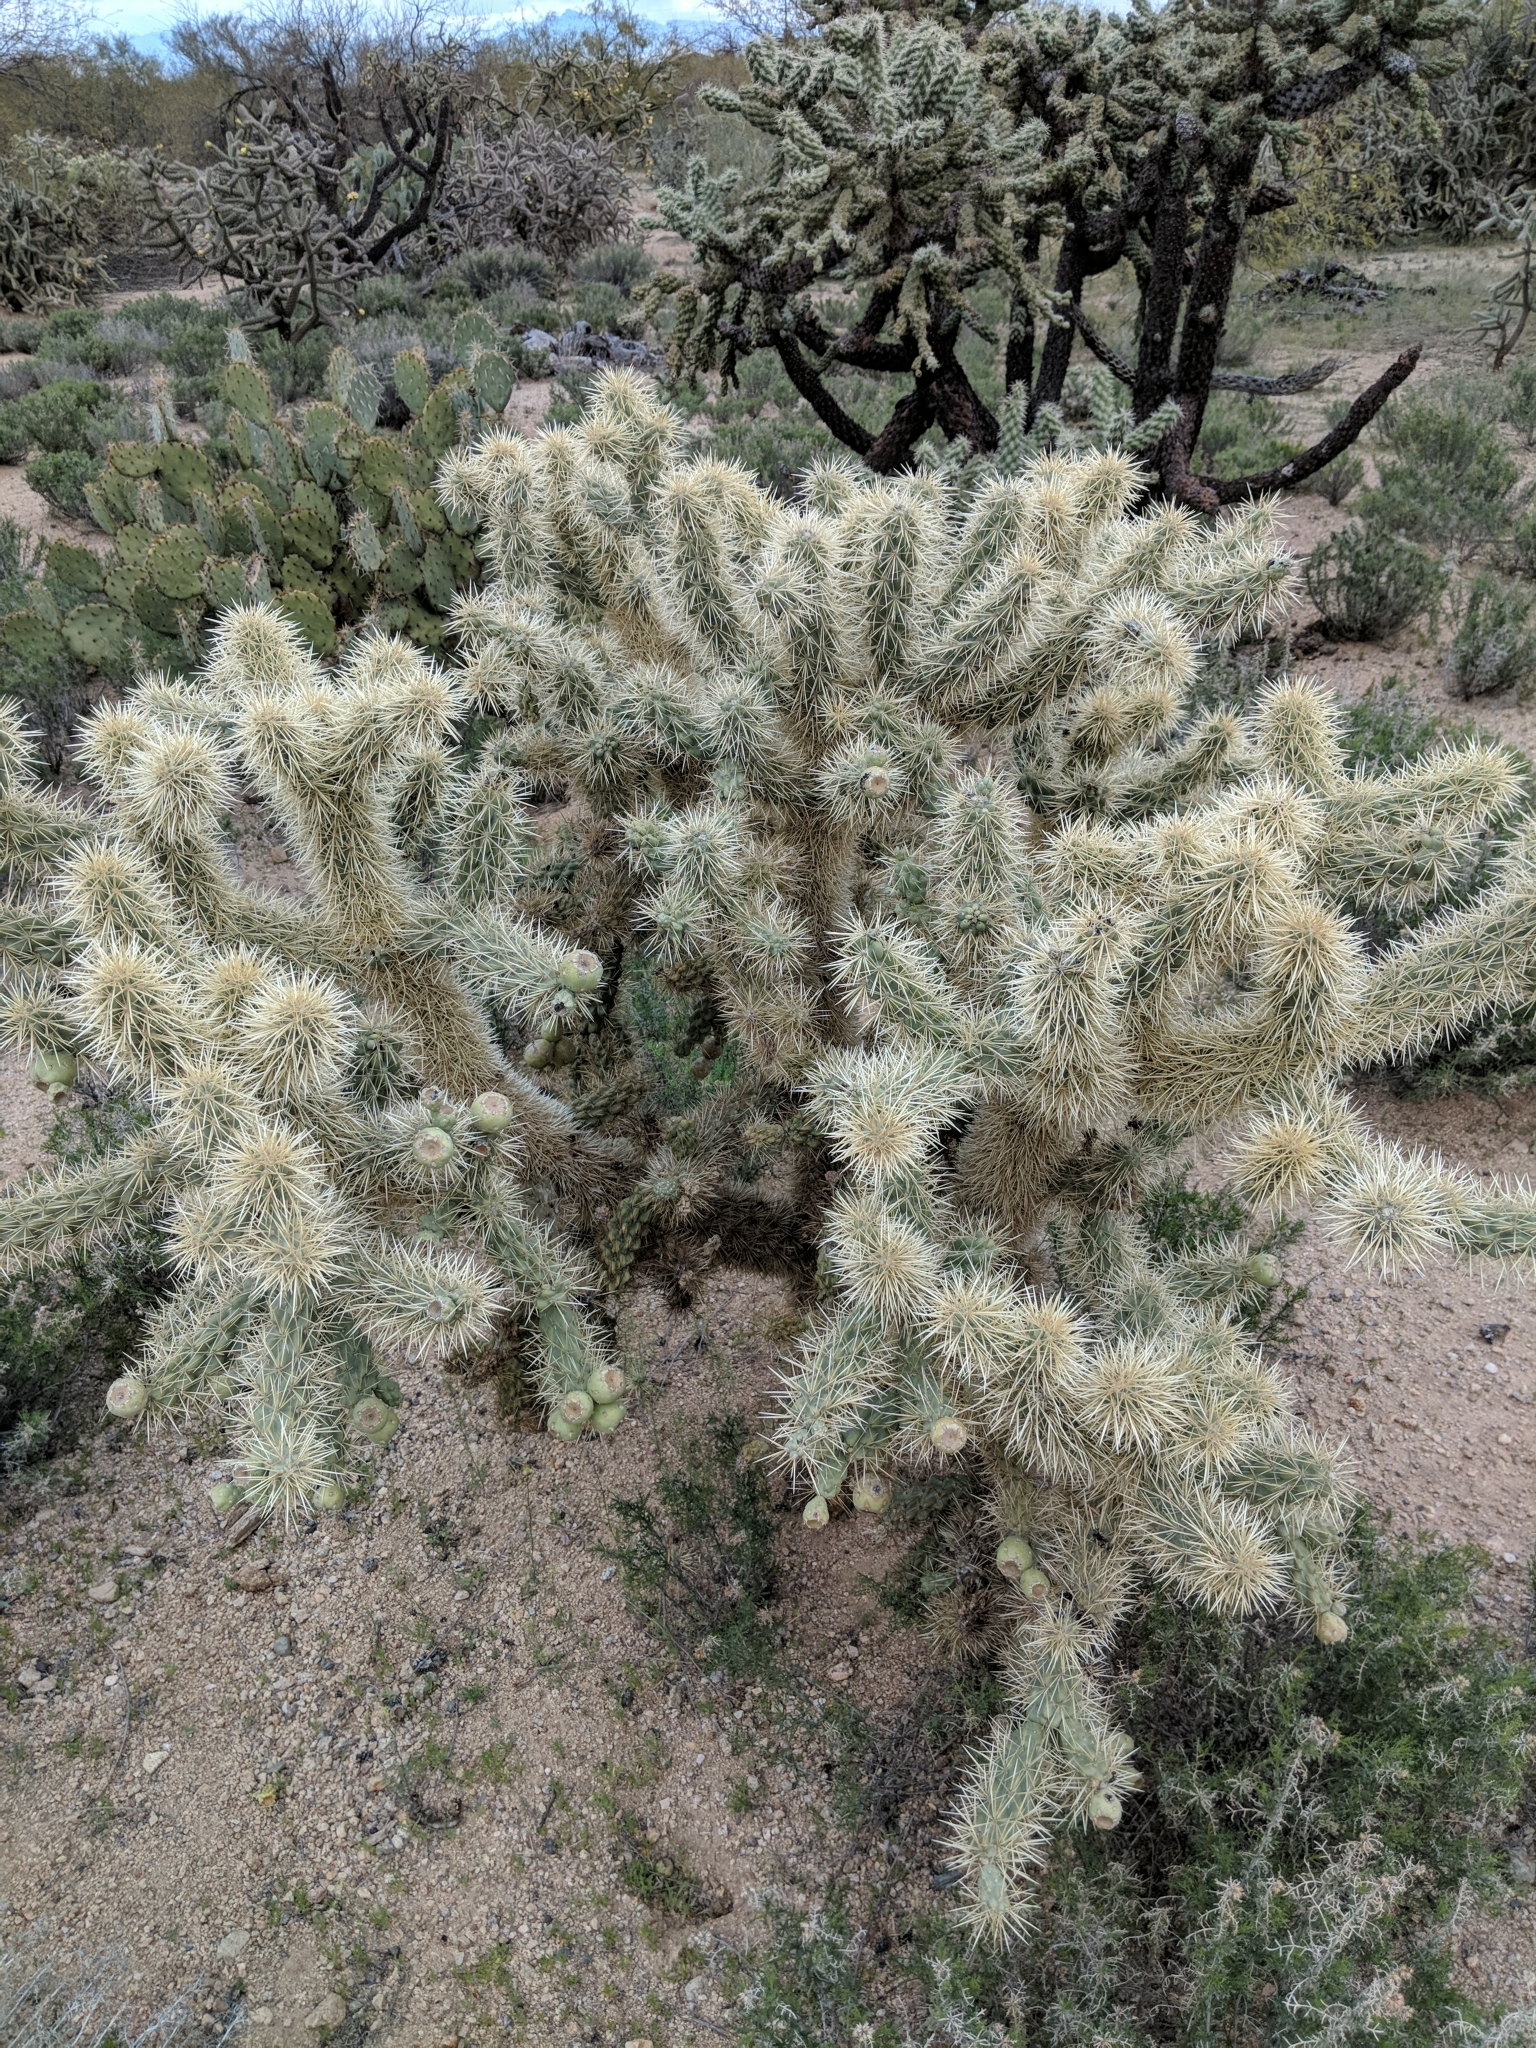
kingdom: Plantae
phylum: Tracheophyta
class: Magnoliopsida
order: Caryophyllales
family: Cactaceae
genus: Cylindropuntia
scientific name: Cylindropuntia fulgida
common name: Jumping cholla
